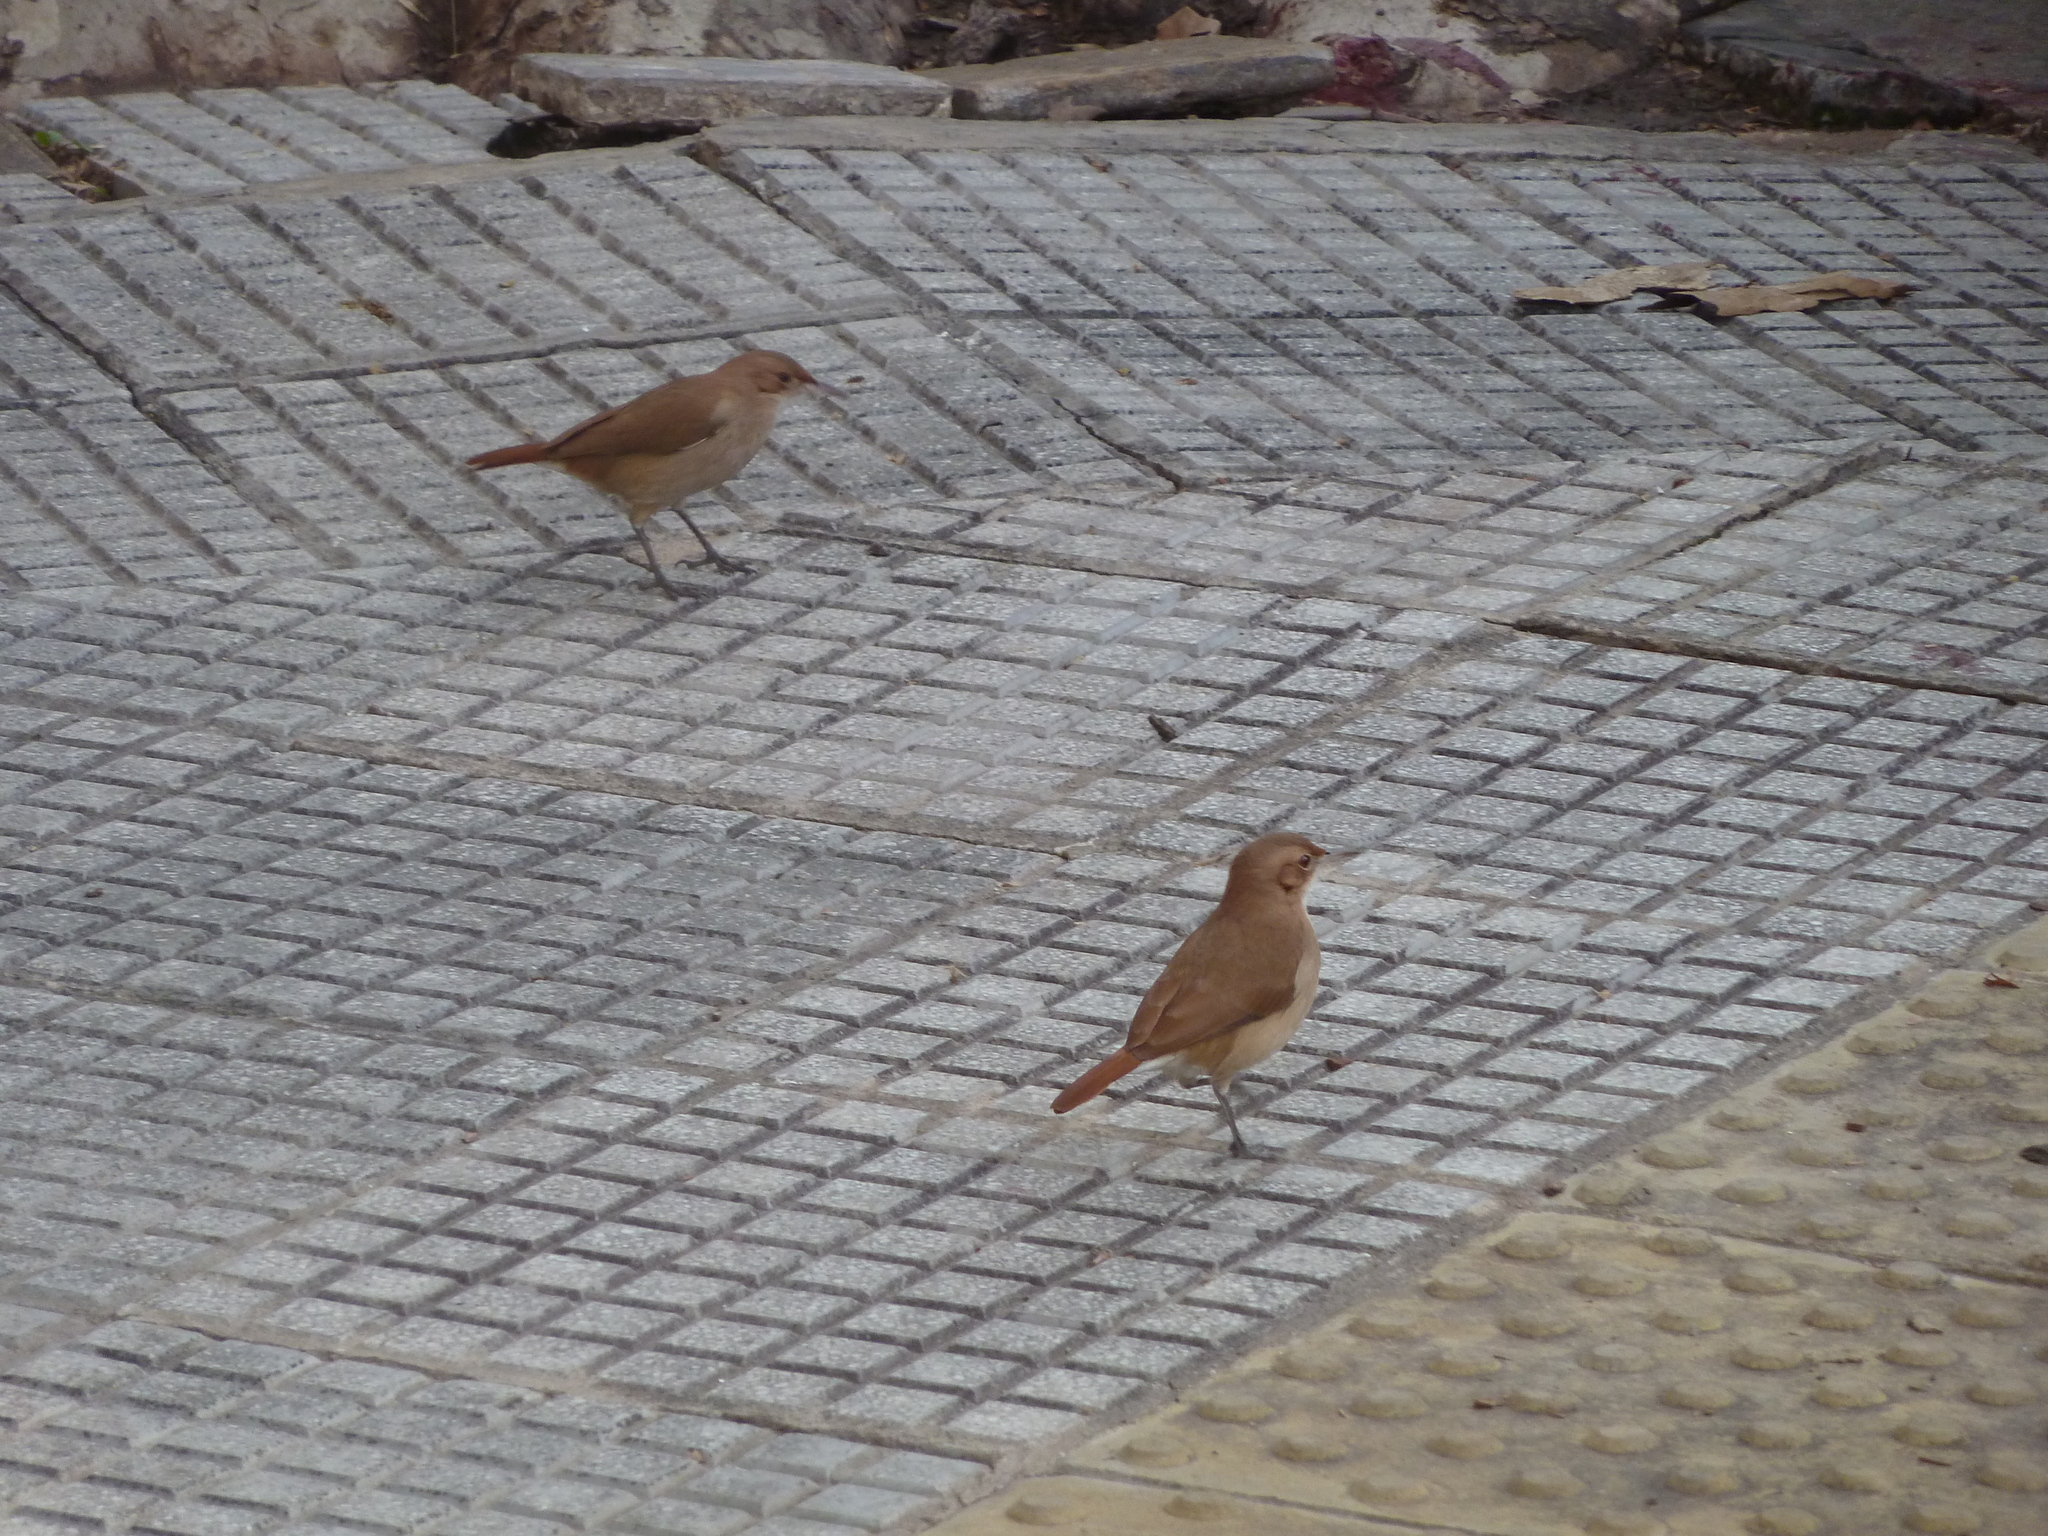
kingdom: Animalia
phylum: Chordata
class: Aves
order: Passeriformes
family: Furnariidae
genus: Furnarius
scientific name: Furnarius rufus
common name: Rufous hornero
